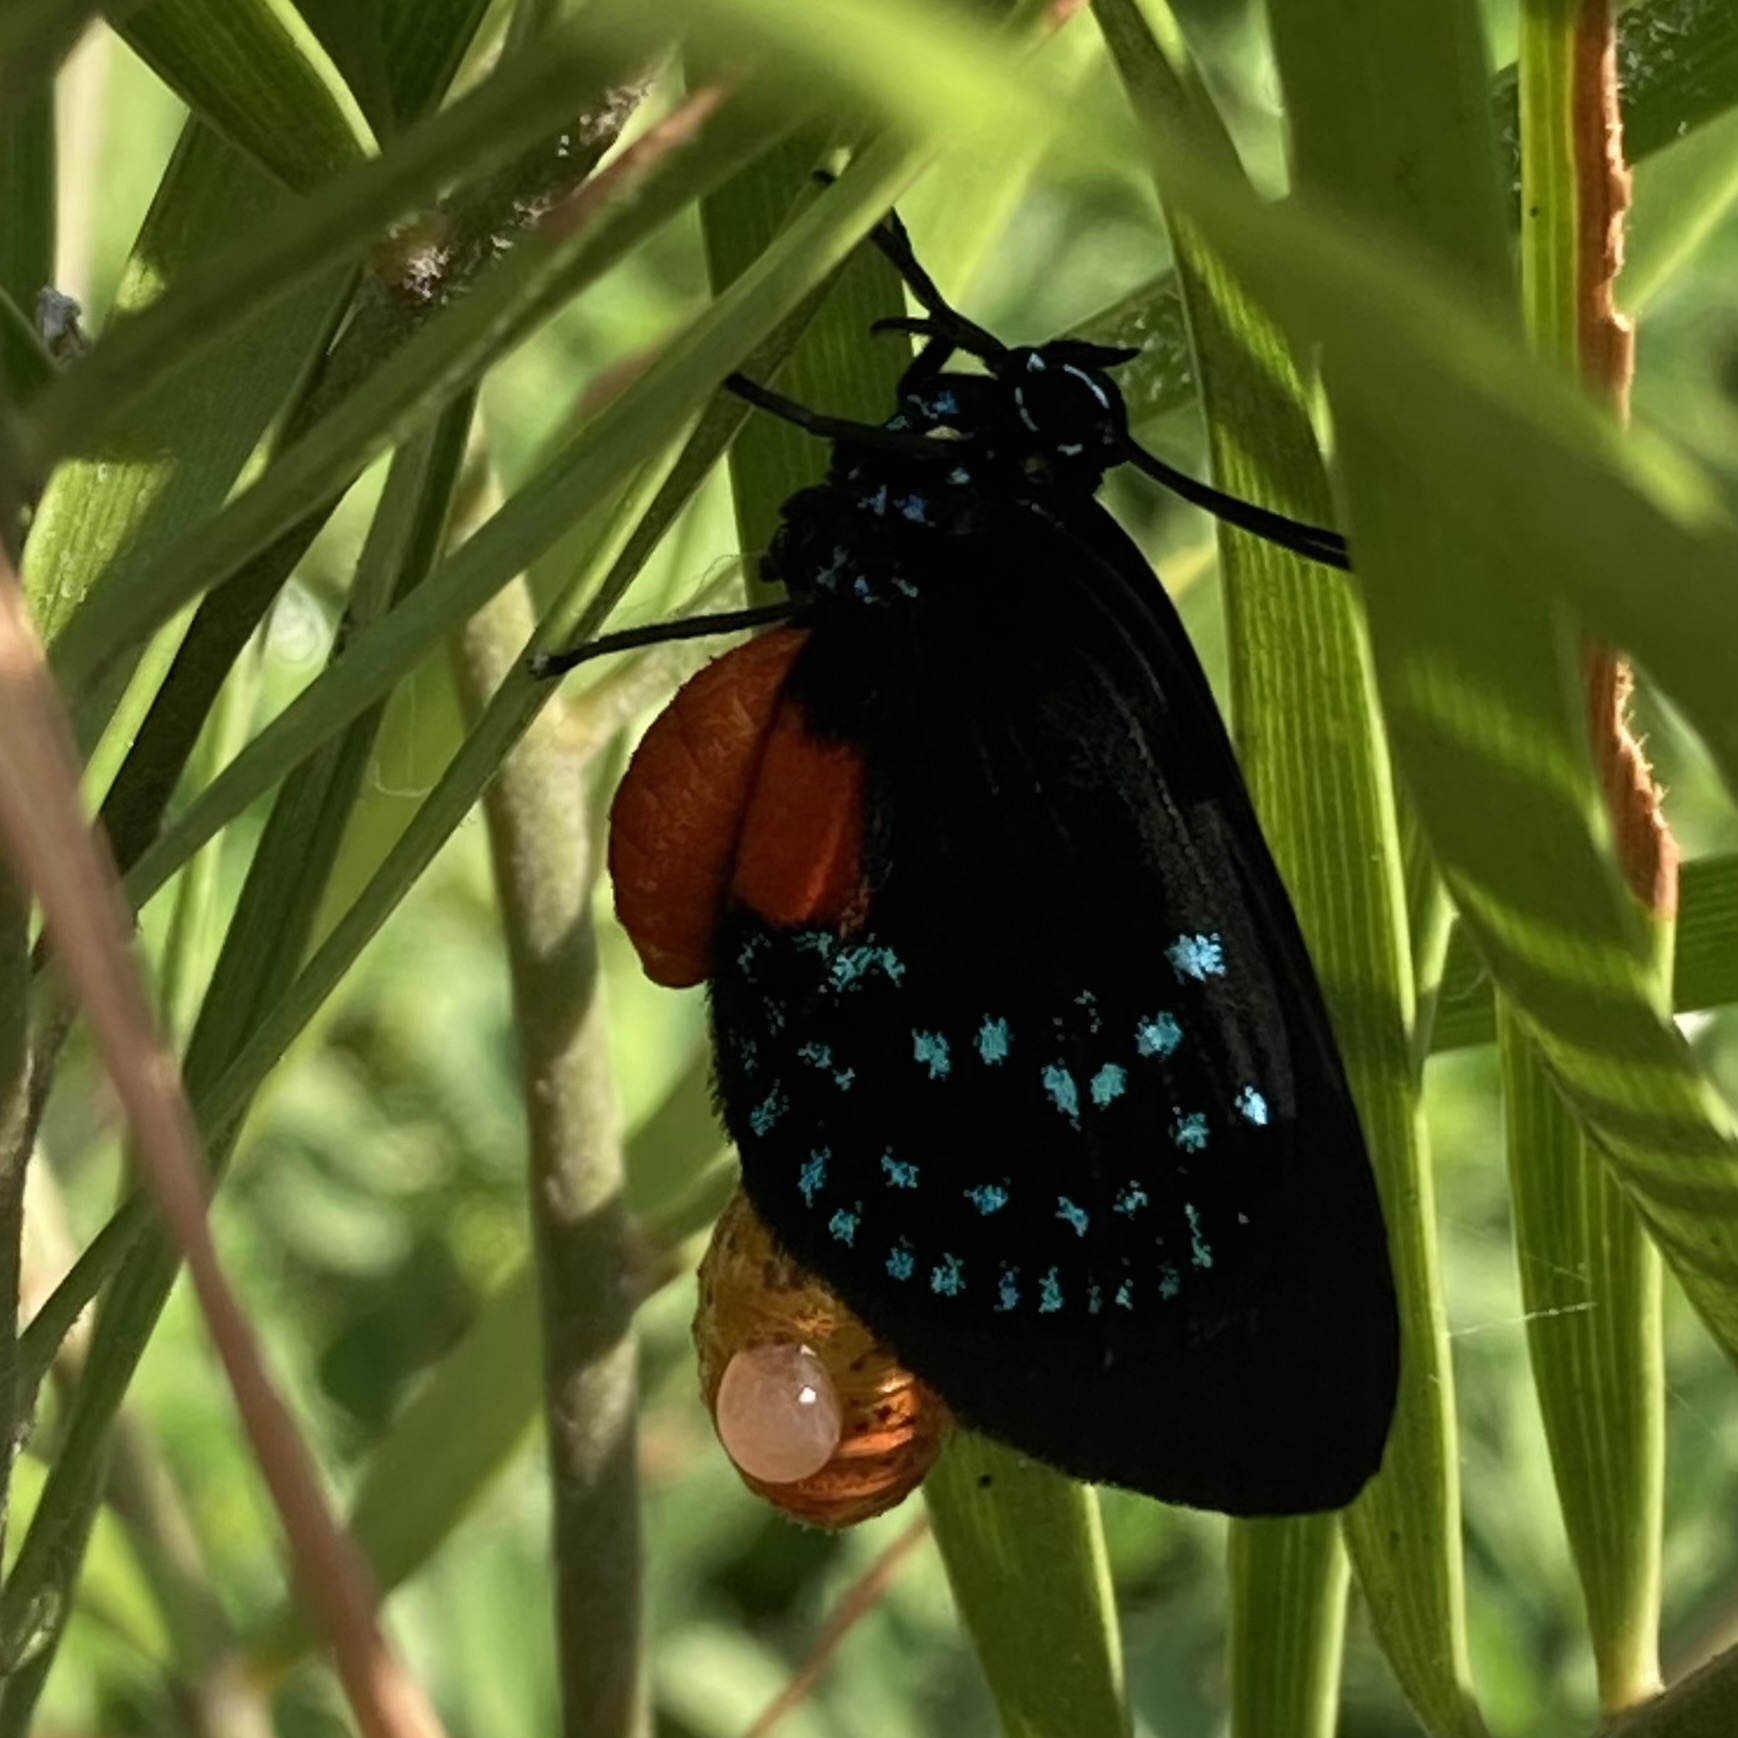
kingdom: Animalia
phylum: Arthropoda
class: Insecta
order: Lepidoptera
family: Lycaenidae
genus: Eumaeus
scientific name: Eumaeus atala
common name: Atala
